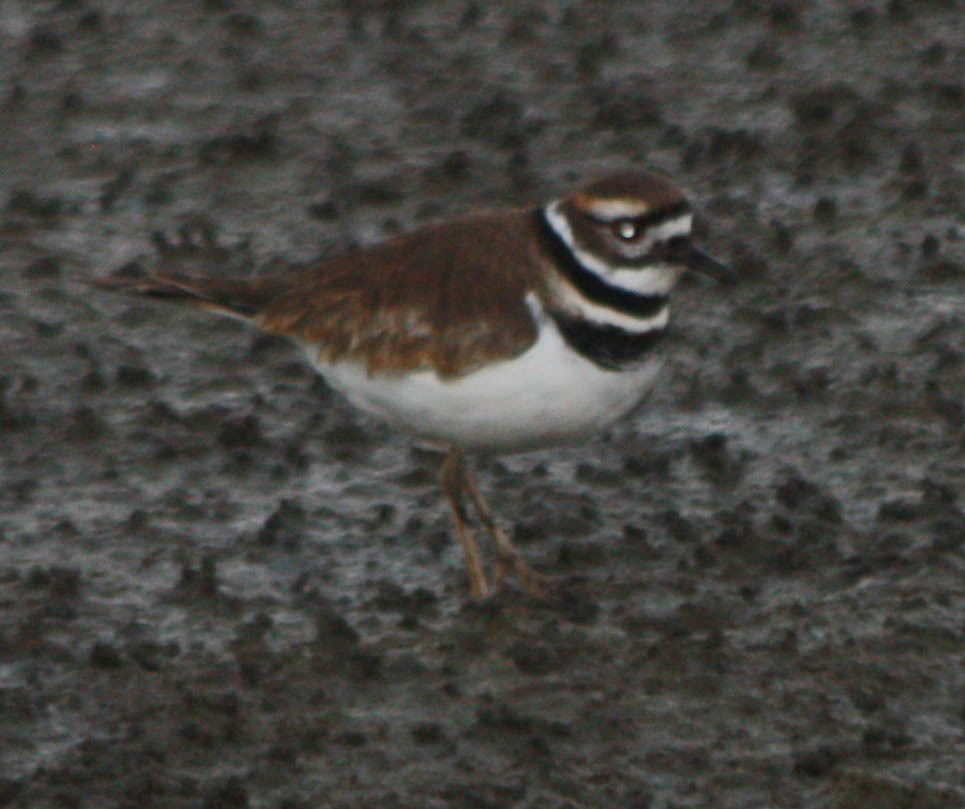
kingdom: Animalia
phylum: Chordata
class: Aves
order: Charadriiformes
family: Charadriidae
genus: Charadrius
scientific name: Charadrius vociferus
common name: Killdeer
